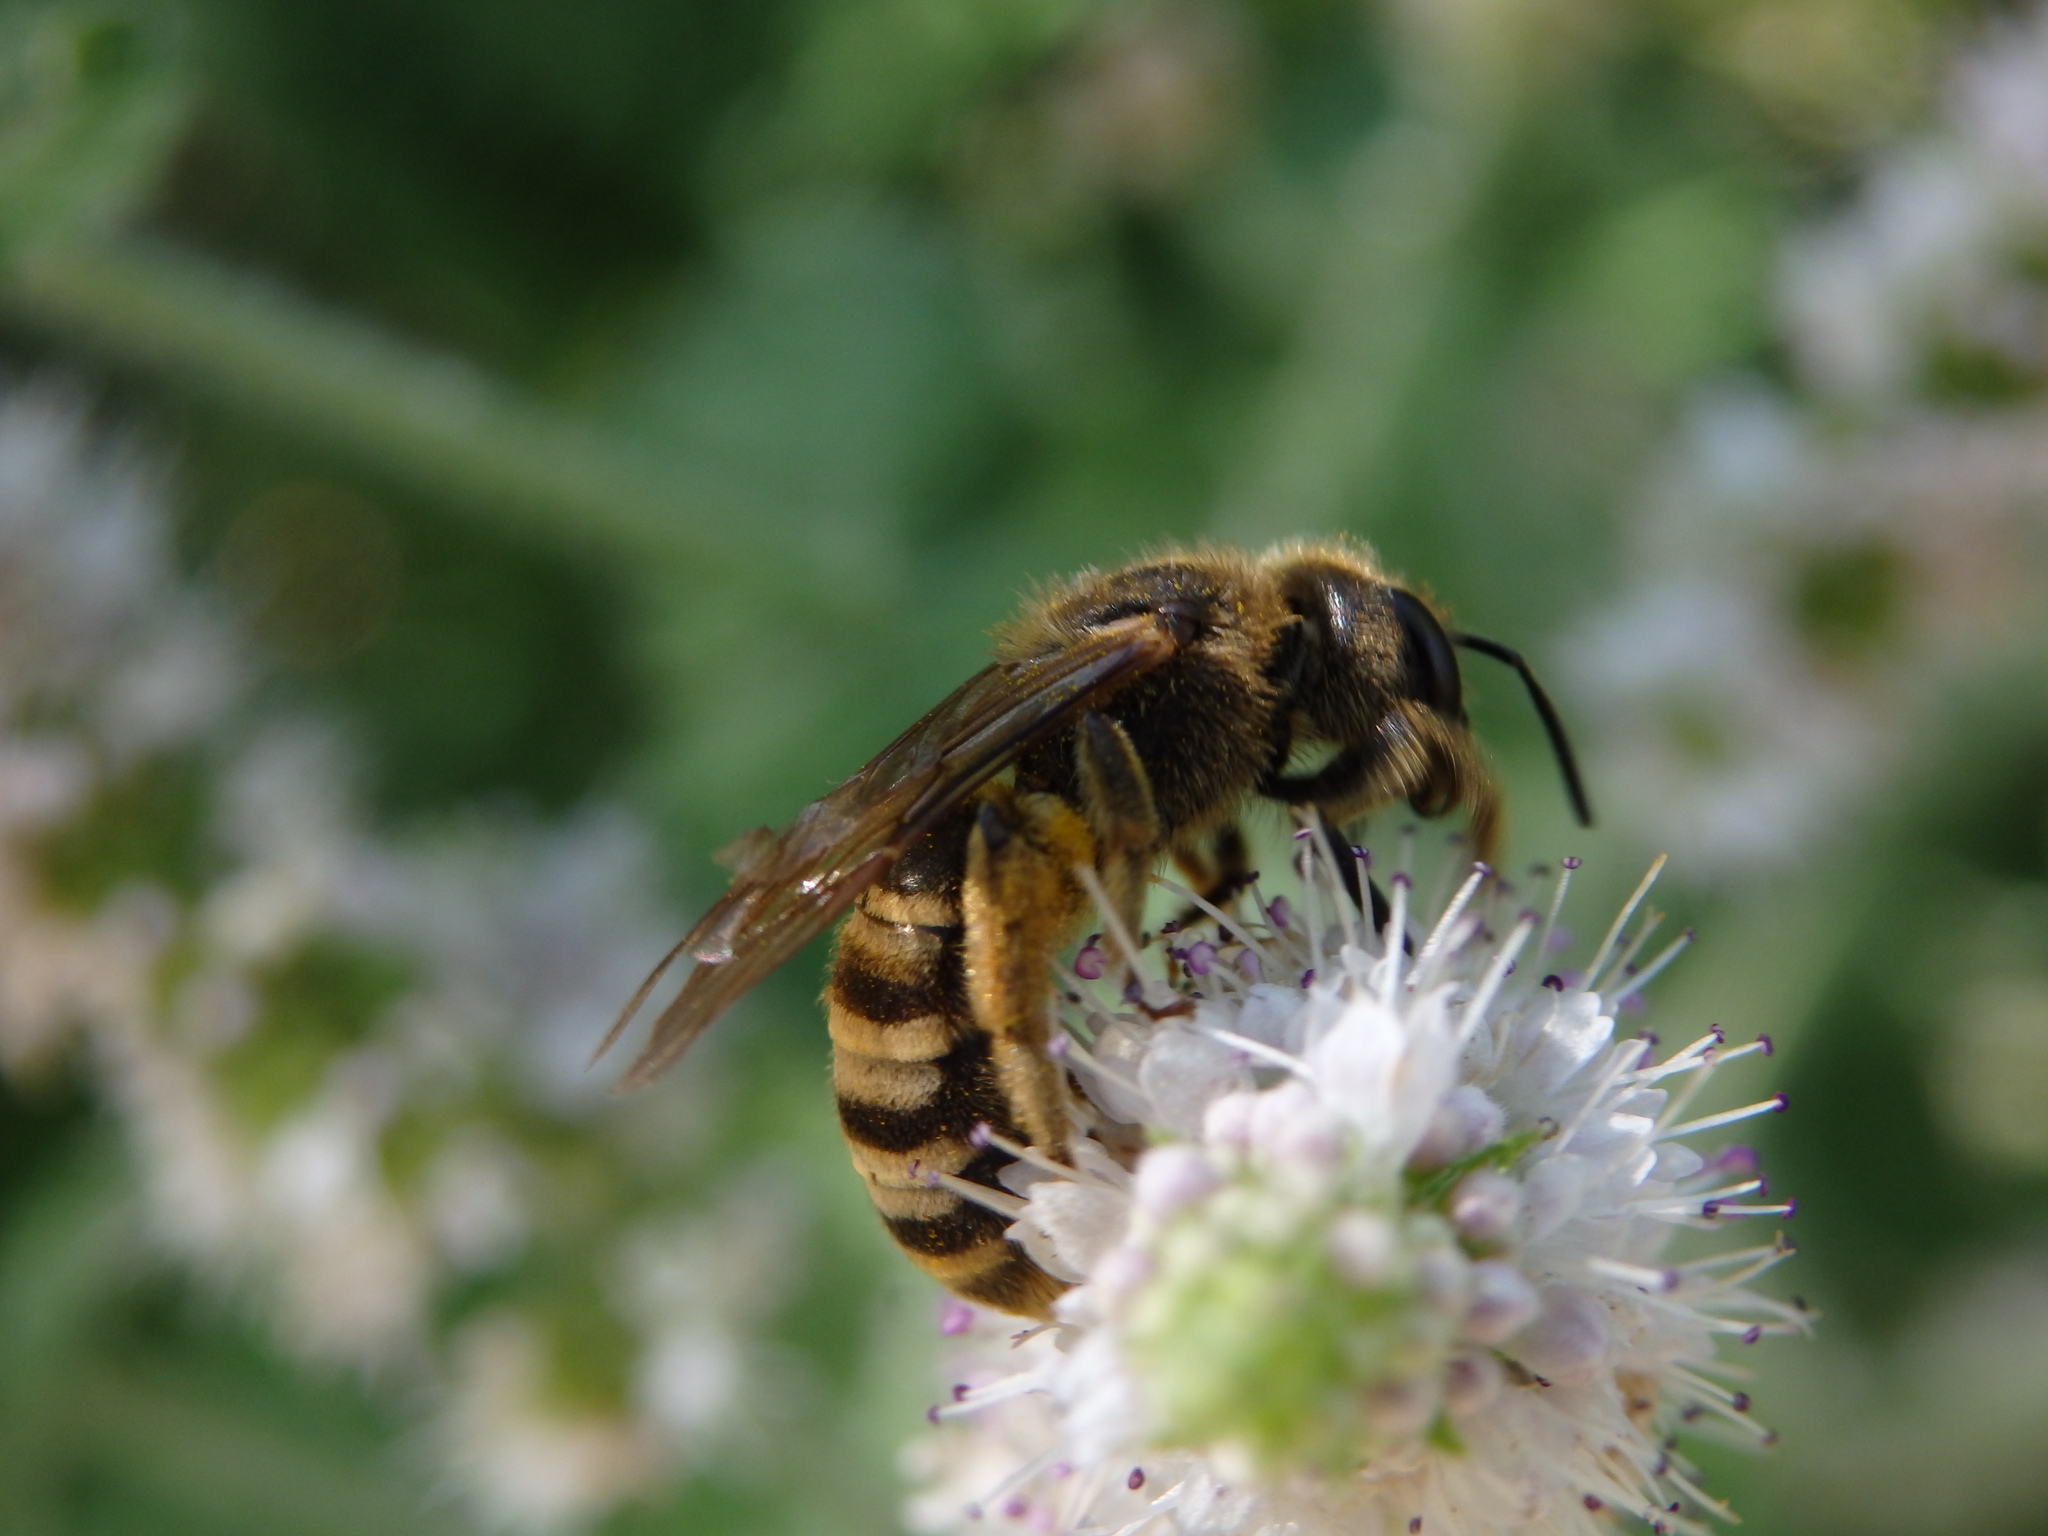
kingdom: Animalia
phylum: Arthropoda
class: Insecta
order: Hymenoptera
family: Halictidae
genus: Halictus
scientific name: Halictus scabiosae
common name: Great banded furrow bee
